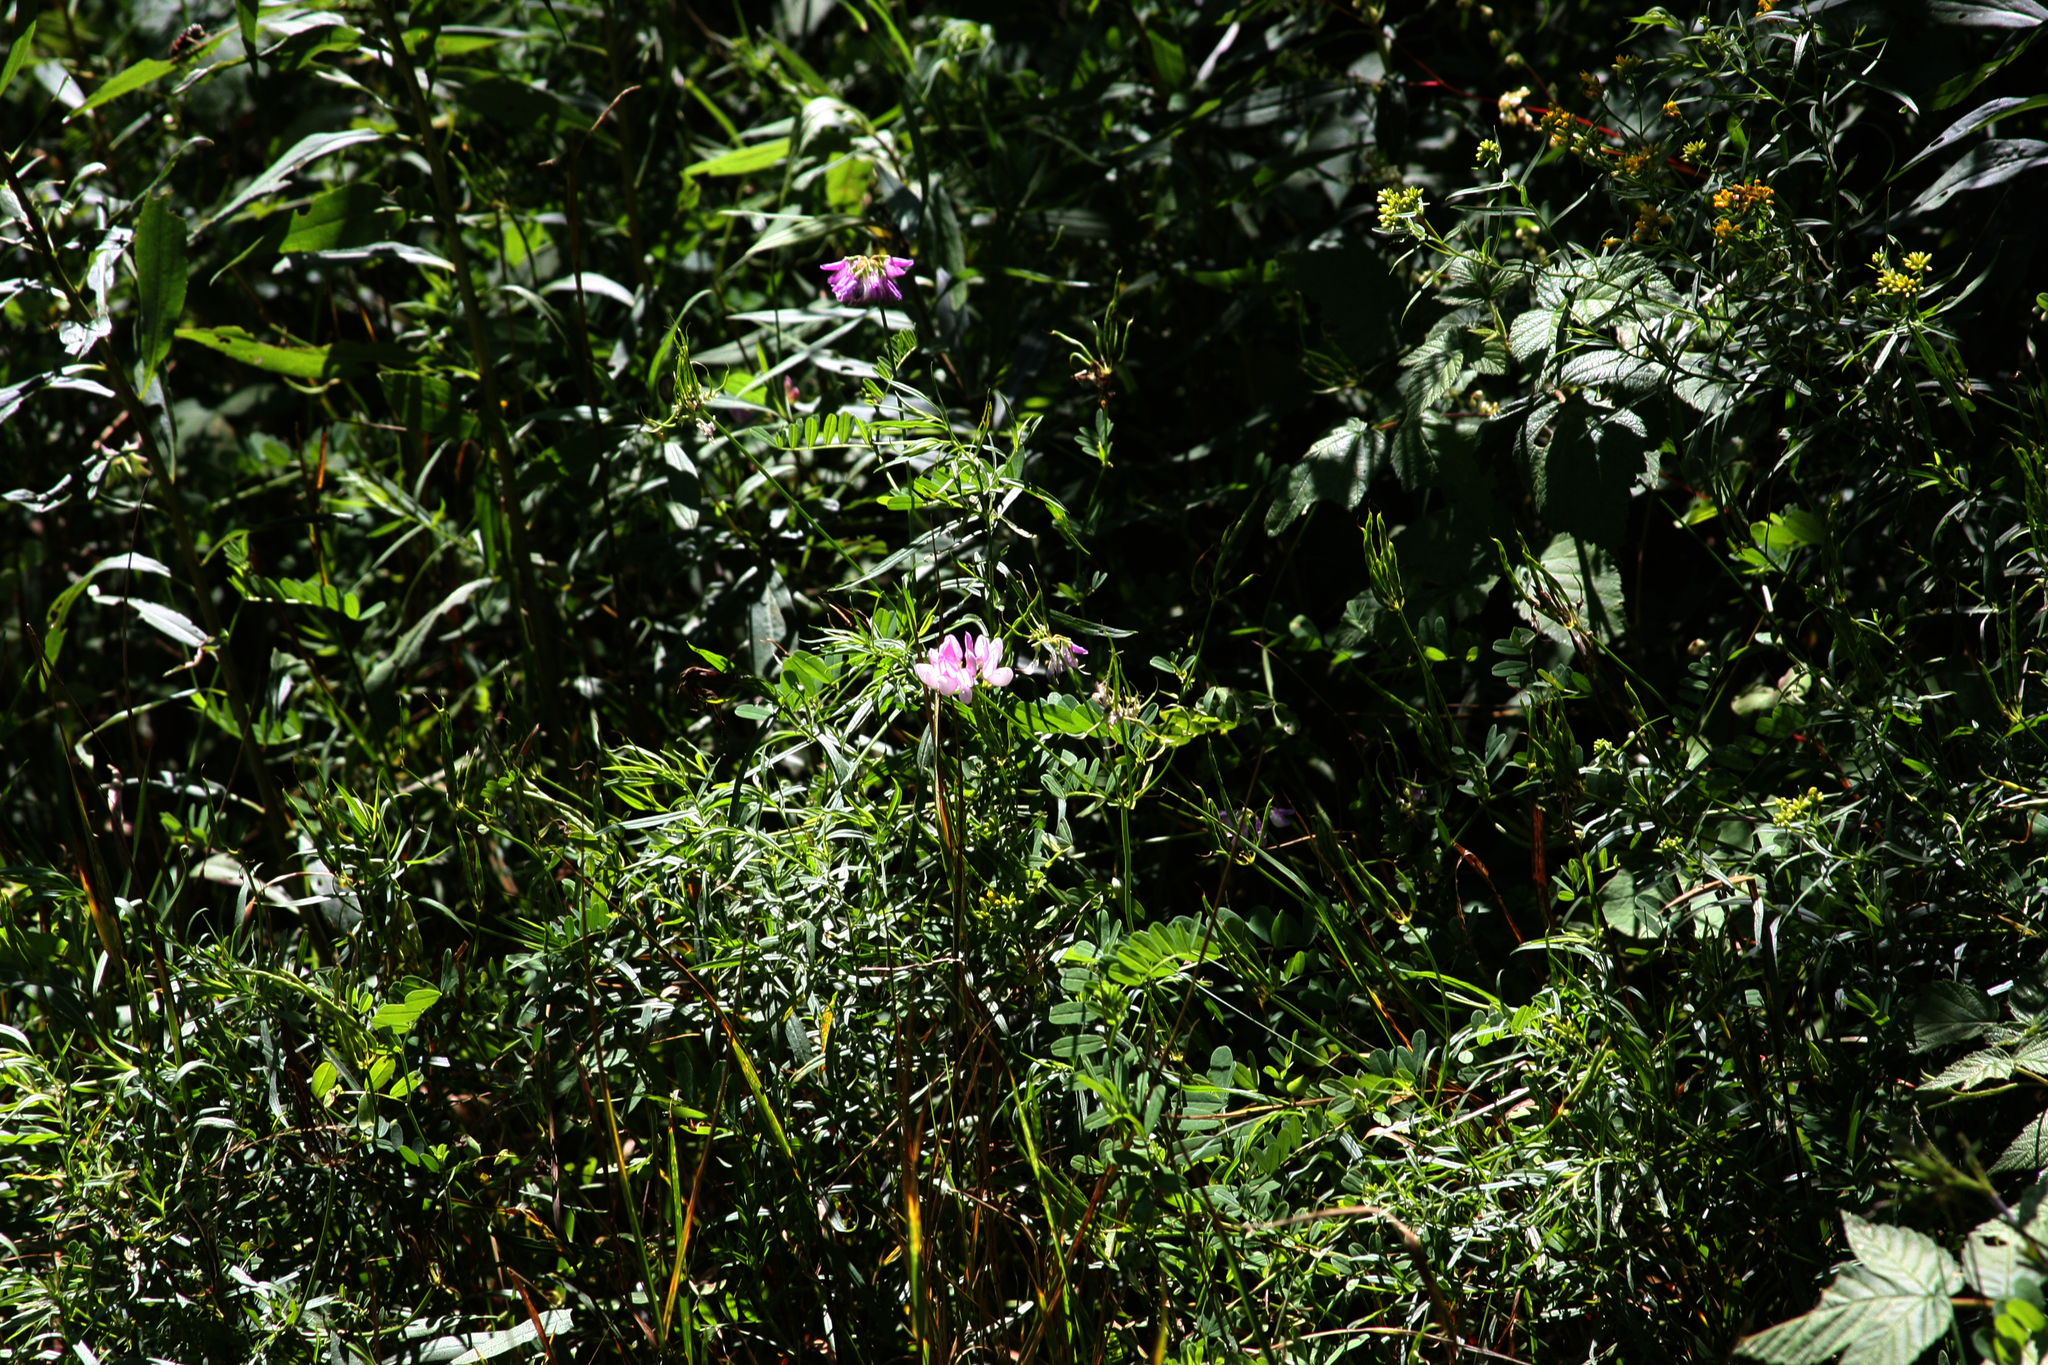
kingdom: Plantae
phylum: Tracheophyta
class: Magnoliopsida
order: Fabales
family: Fabaceae
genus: Coronilla
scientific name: Coronilla varia
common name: Crownvetch
